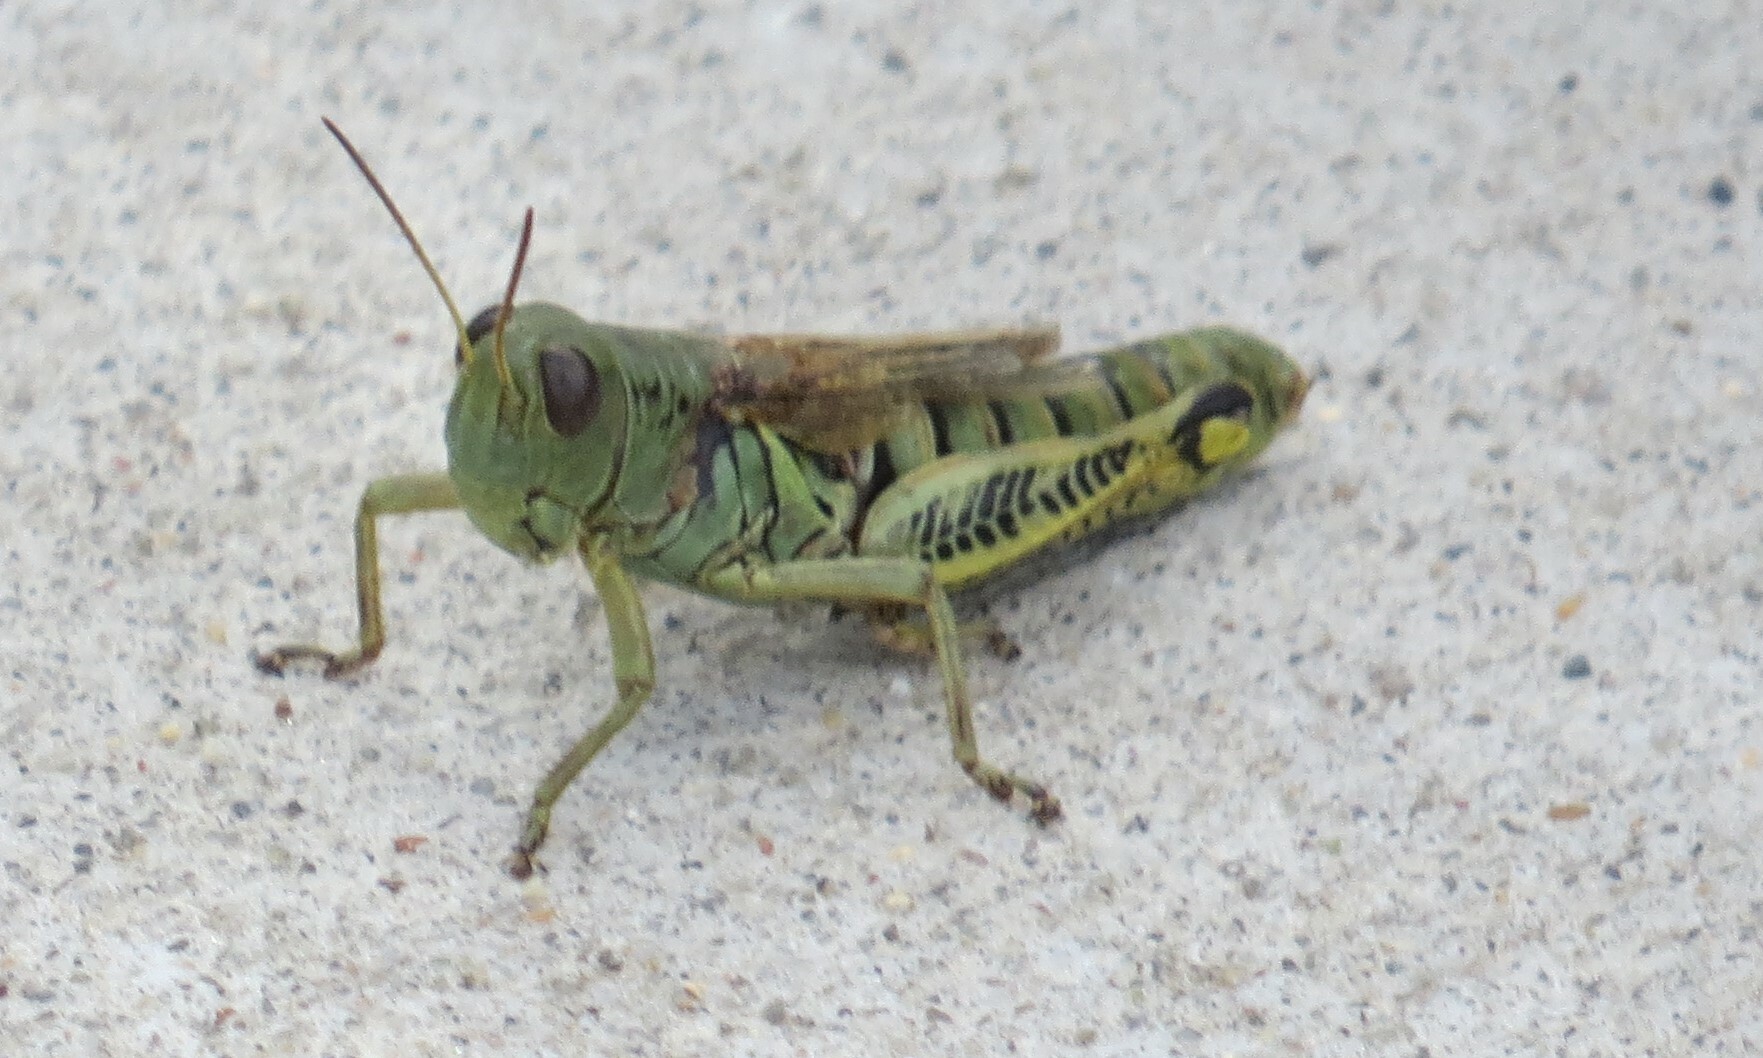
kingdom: Animalia
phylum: Arthropoda
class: Insecta
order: Orthoptera
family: Acrididae
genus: Melanoplus
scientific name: Melanoplus differentialis
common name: Differential grasshopper
